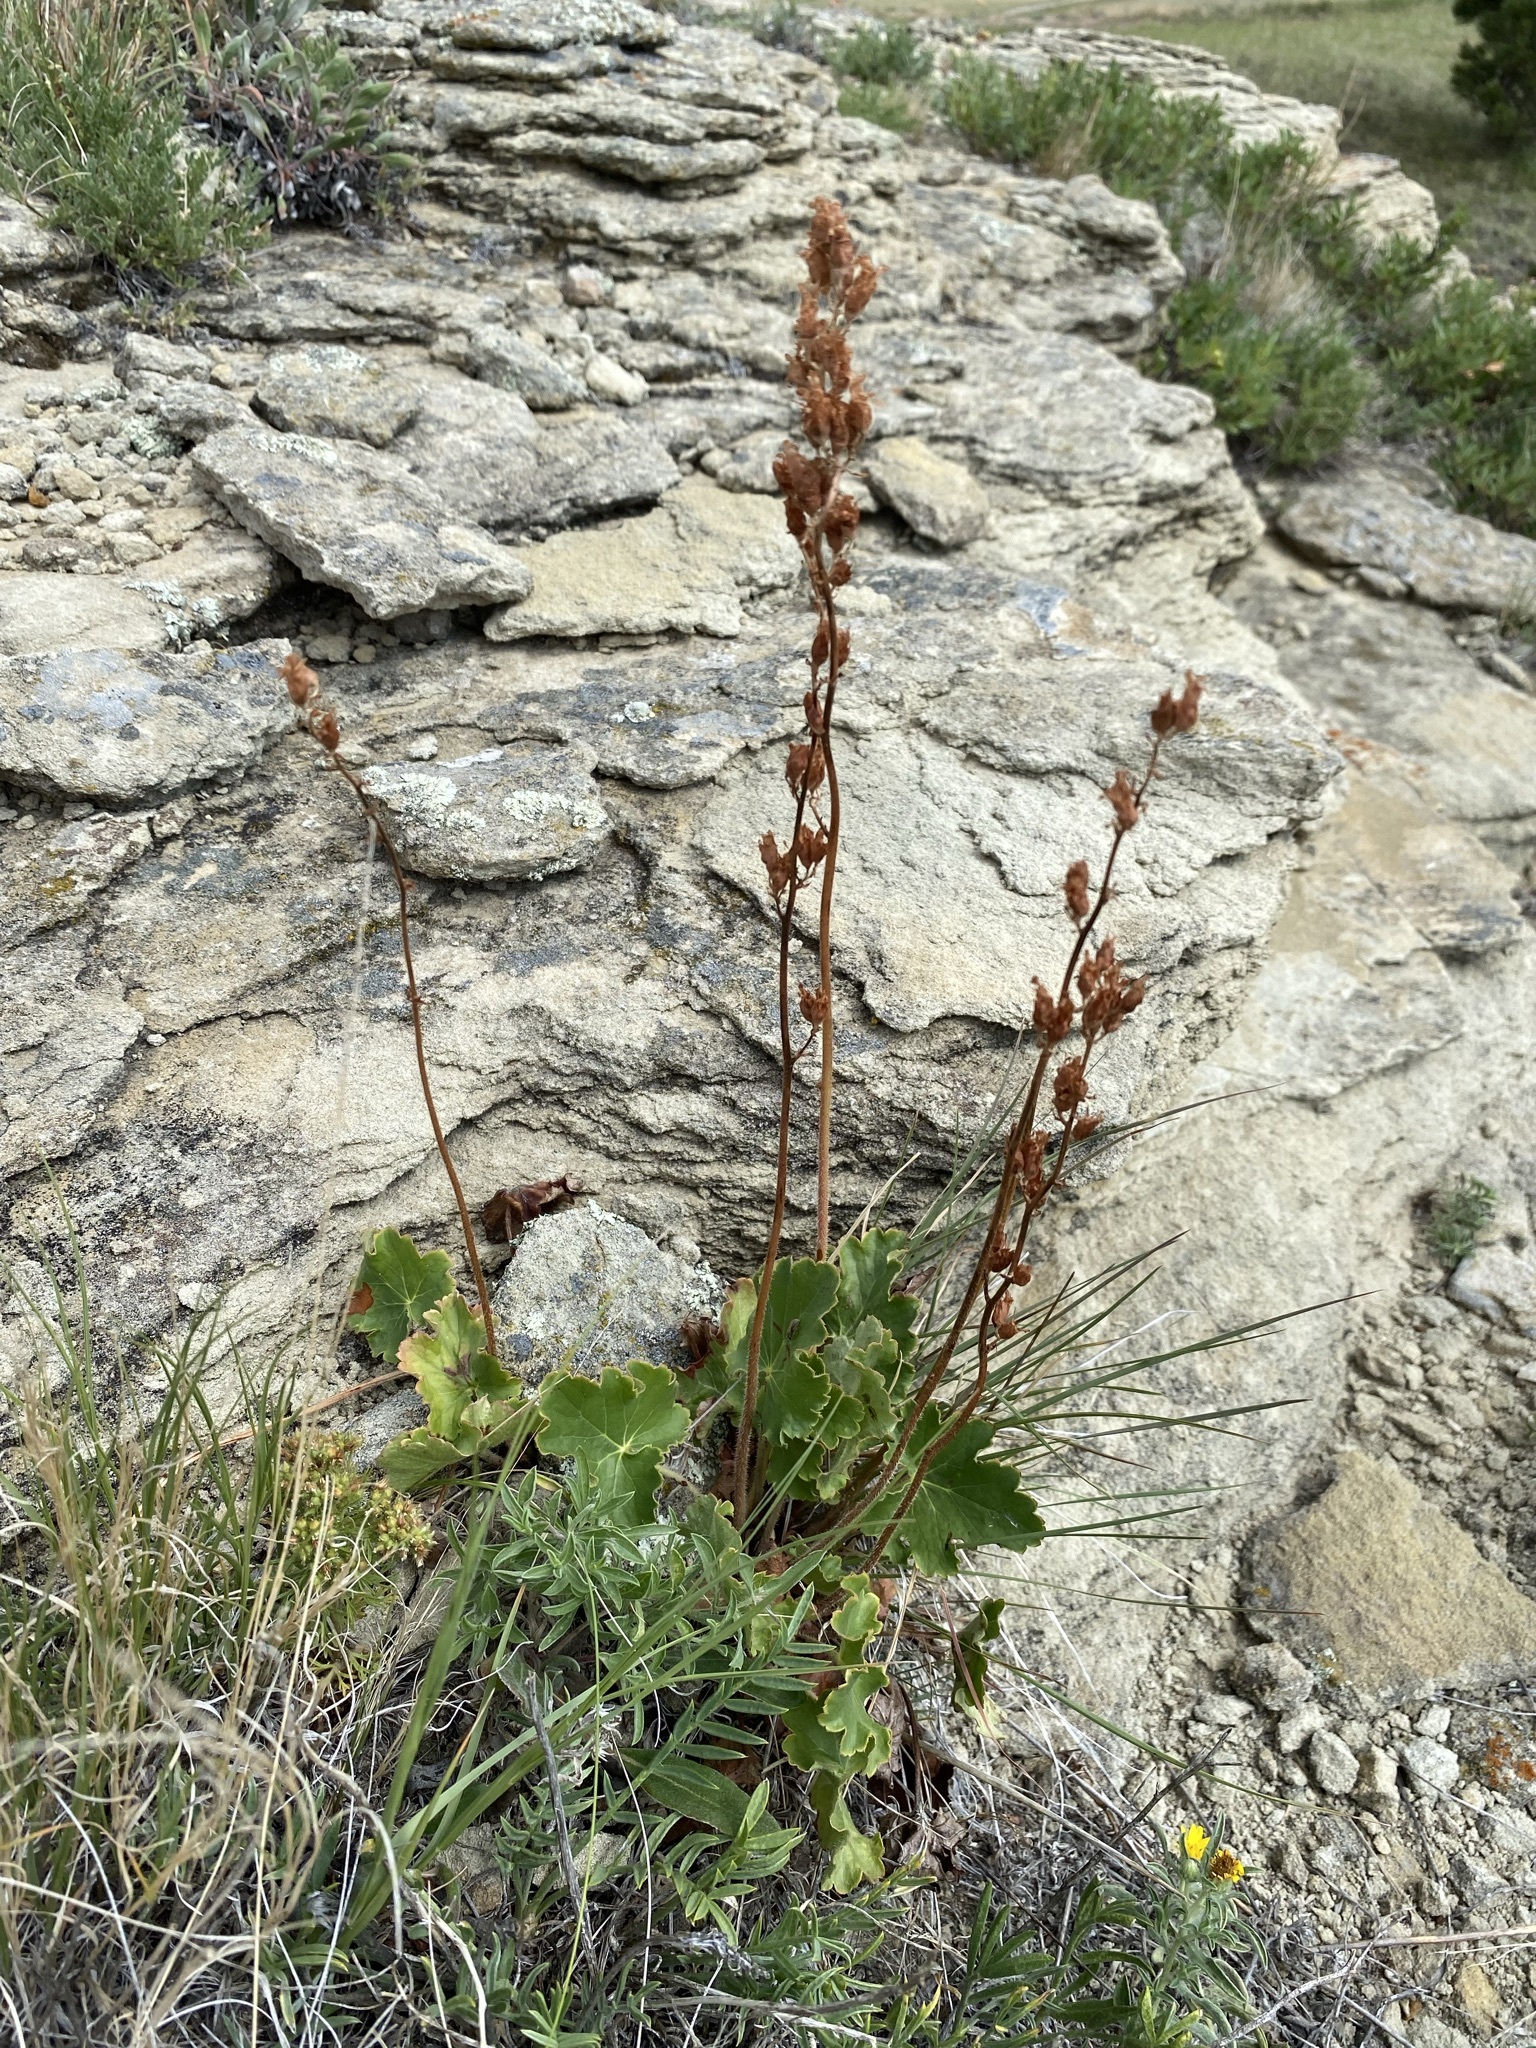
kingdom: Plantae
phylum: Tracheophyta
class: Magnoliopsida
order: Saxifragales
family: Saxifragaceae
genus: Heuchera
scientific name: Heuchera richardsonii
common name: Richardson's alumroot
